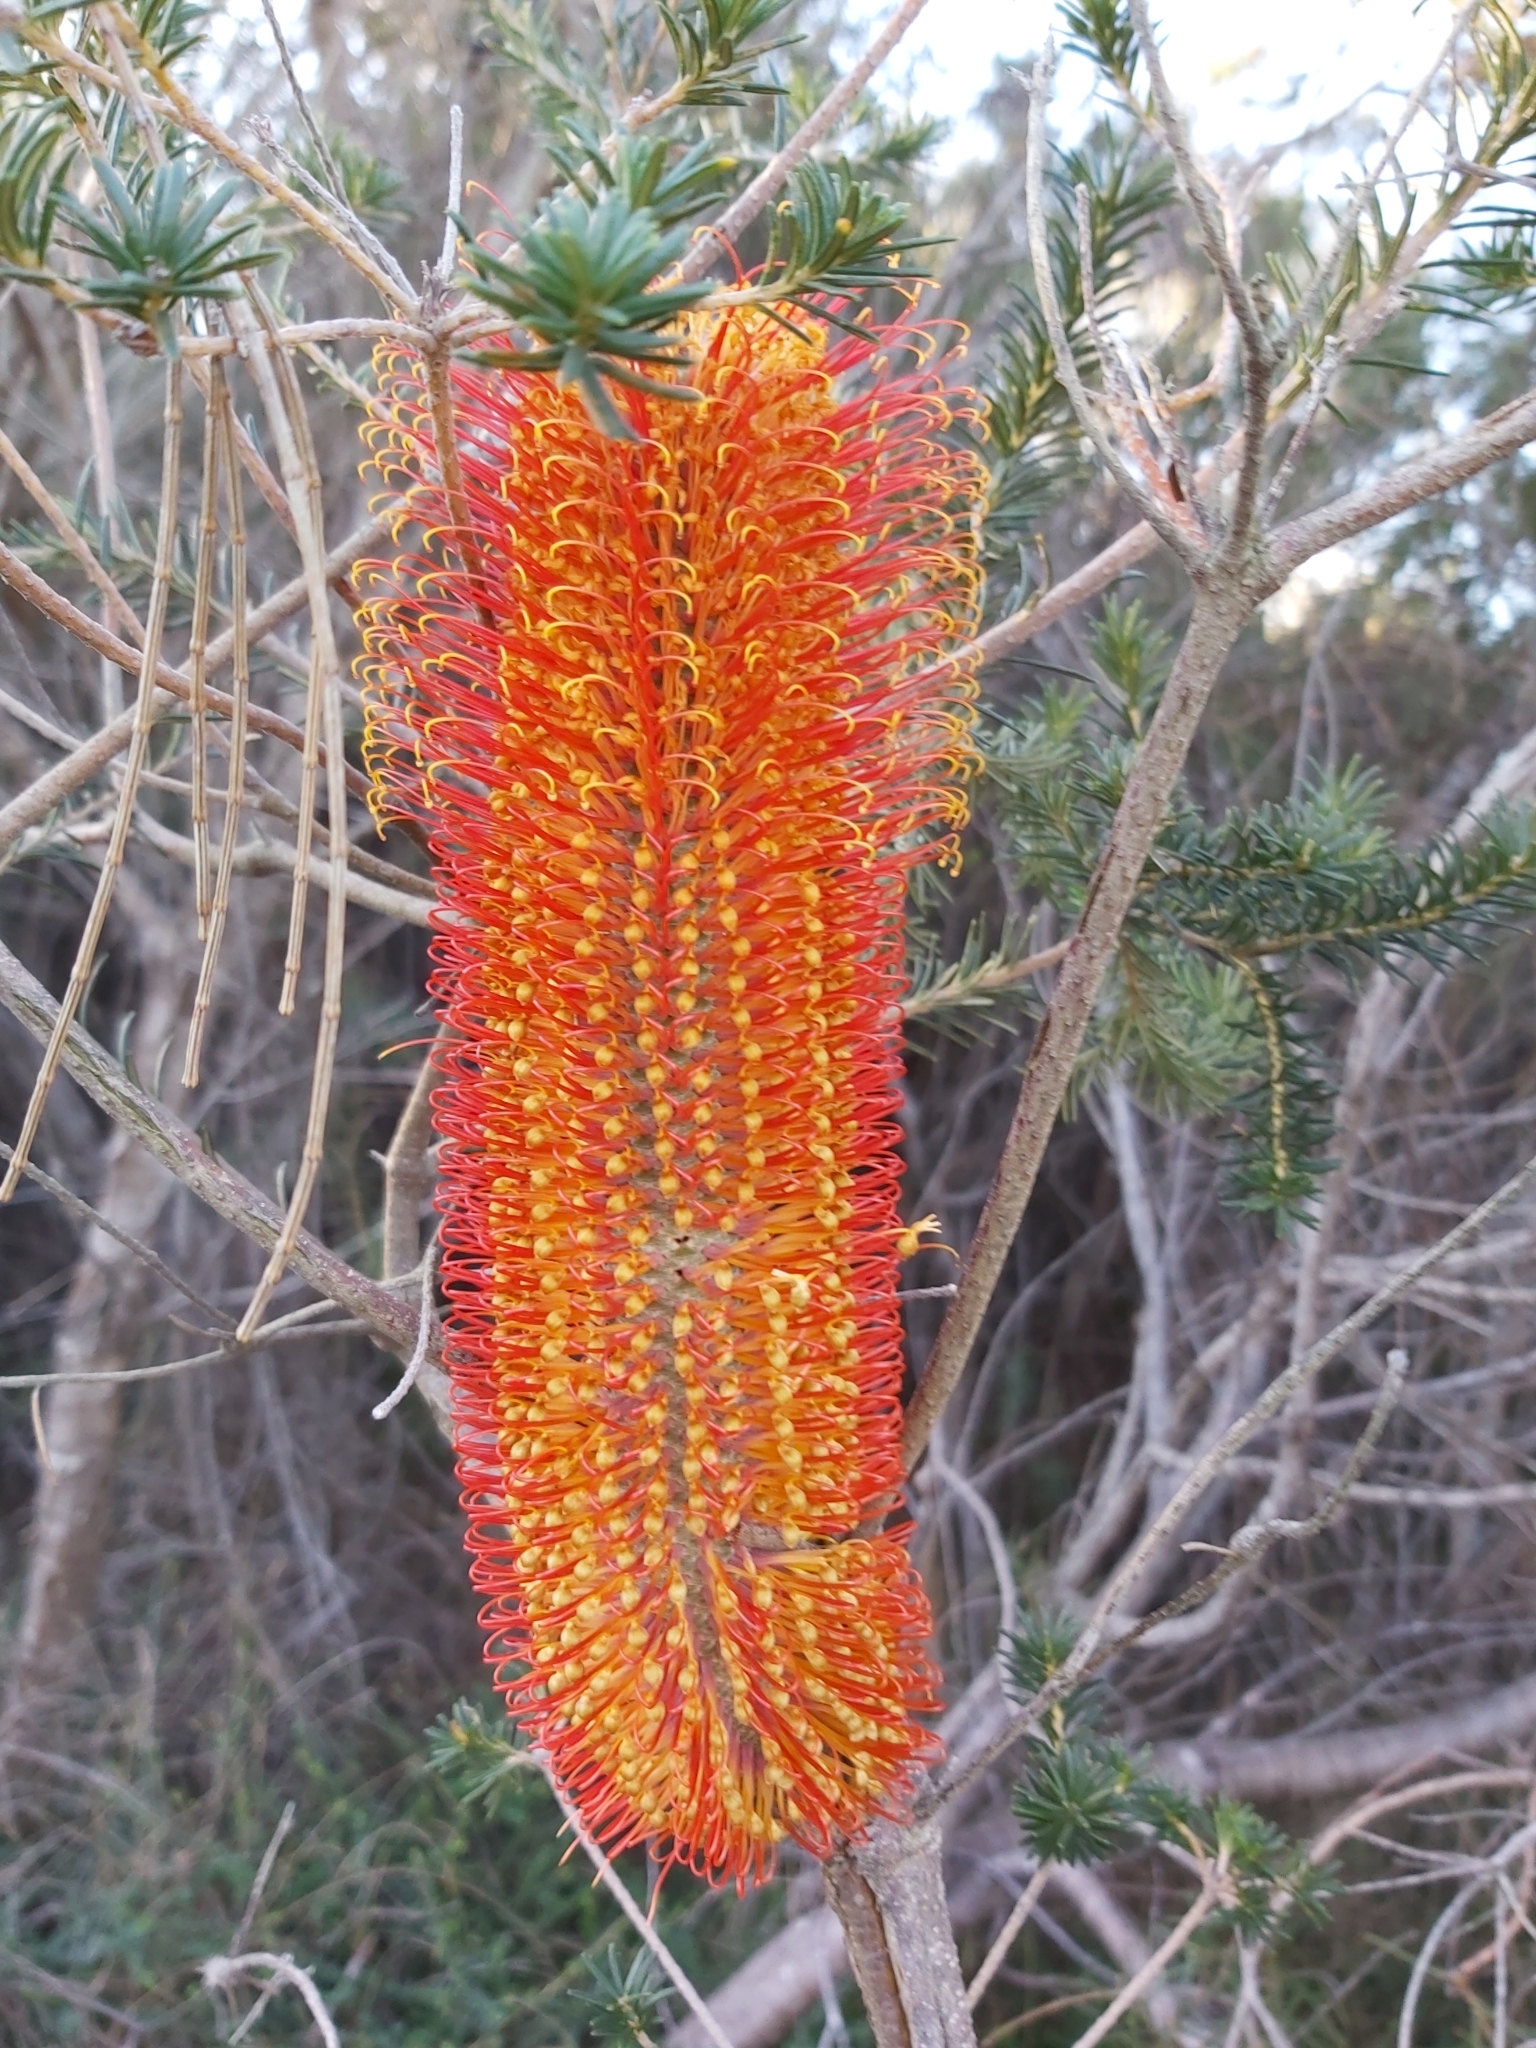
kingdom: Plantae
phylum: Tracheophyta
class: Magnoliopsida
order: Proteales
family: Proteaceae
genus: Banksia
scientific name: Banksia ericifolia
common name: Heath-leaf banksia
